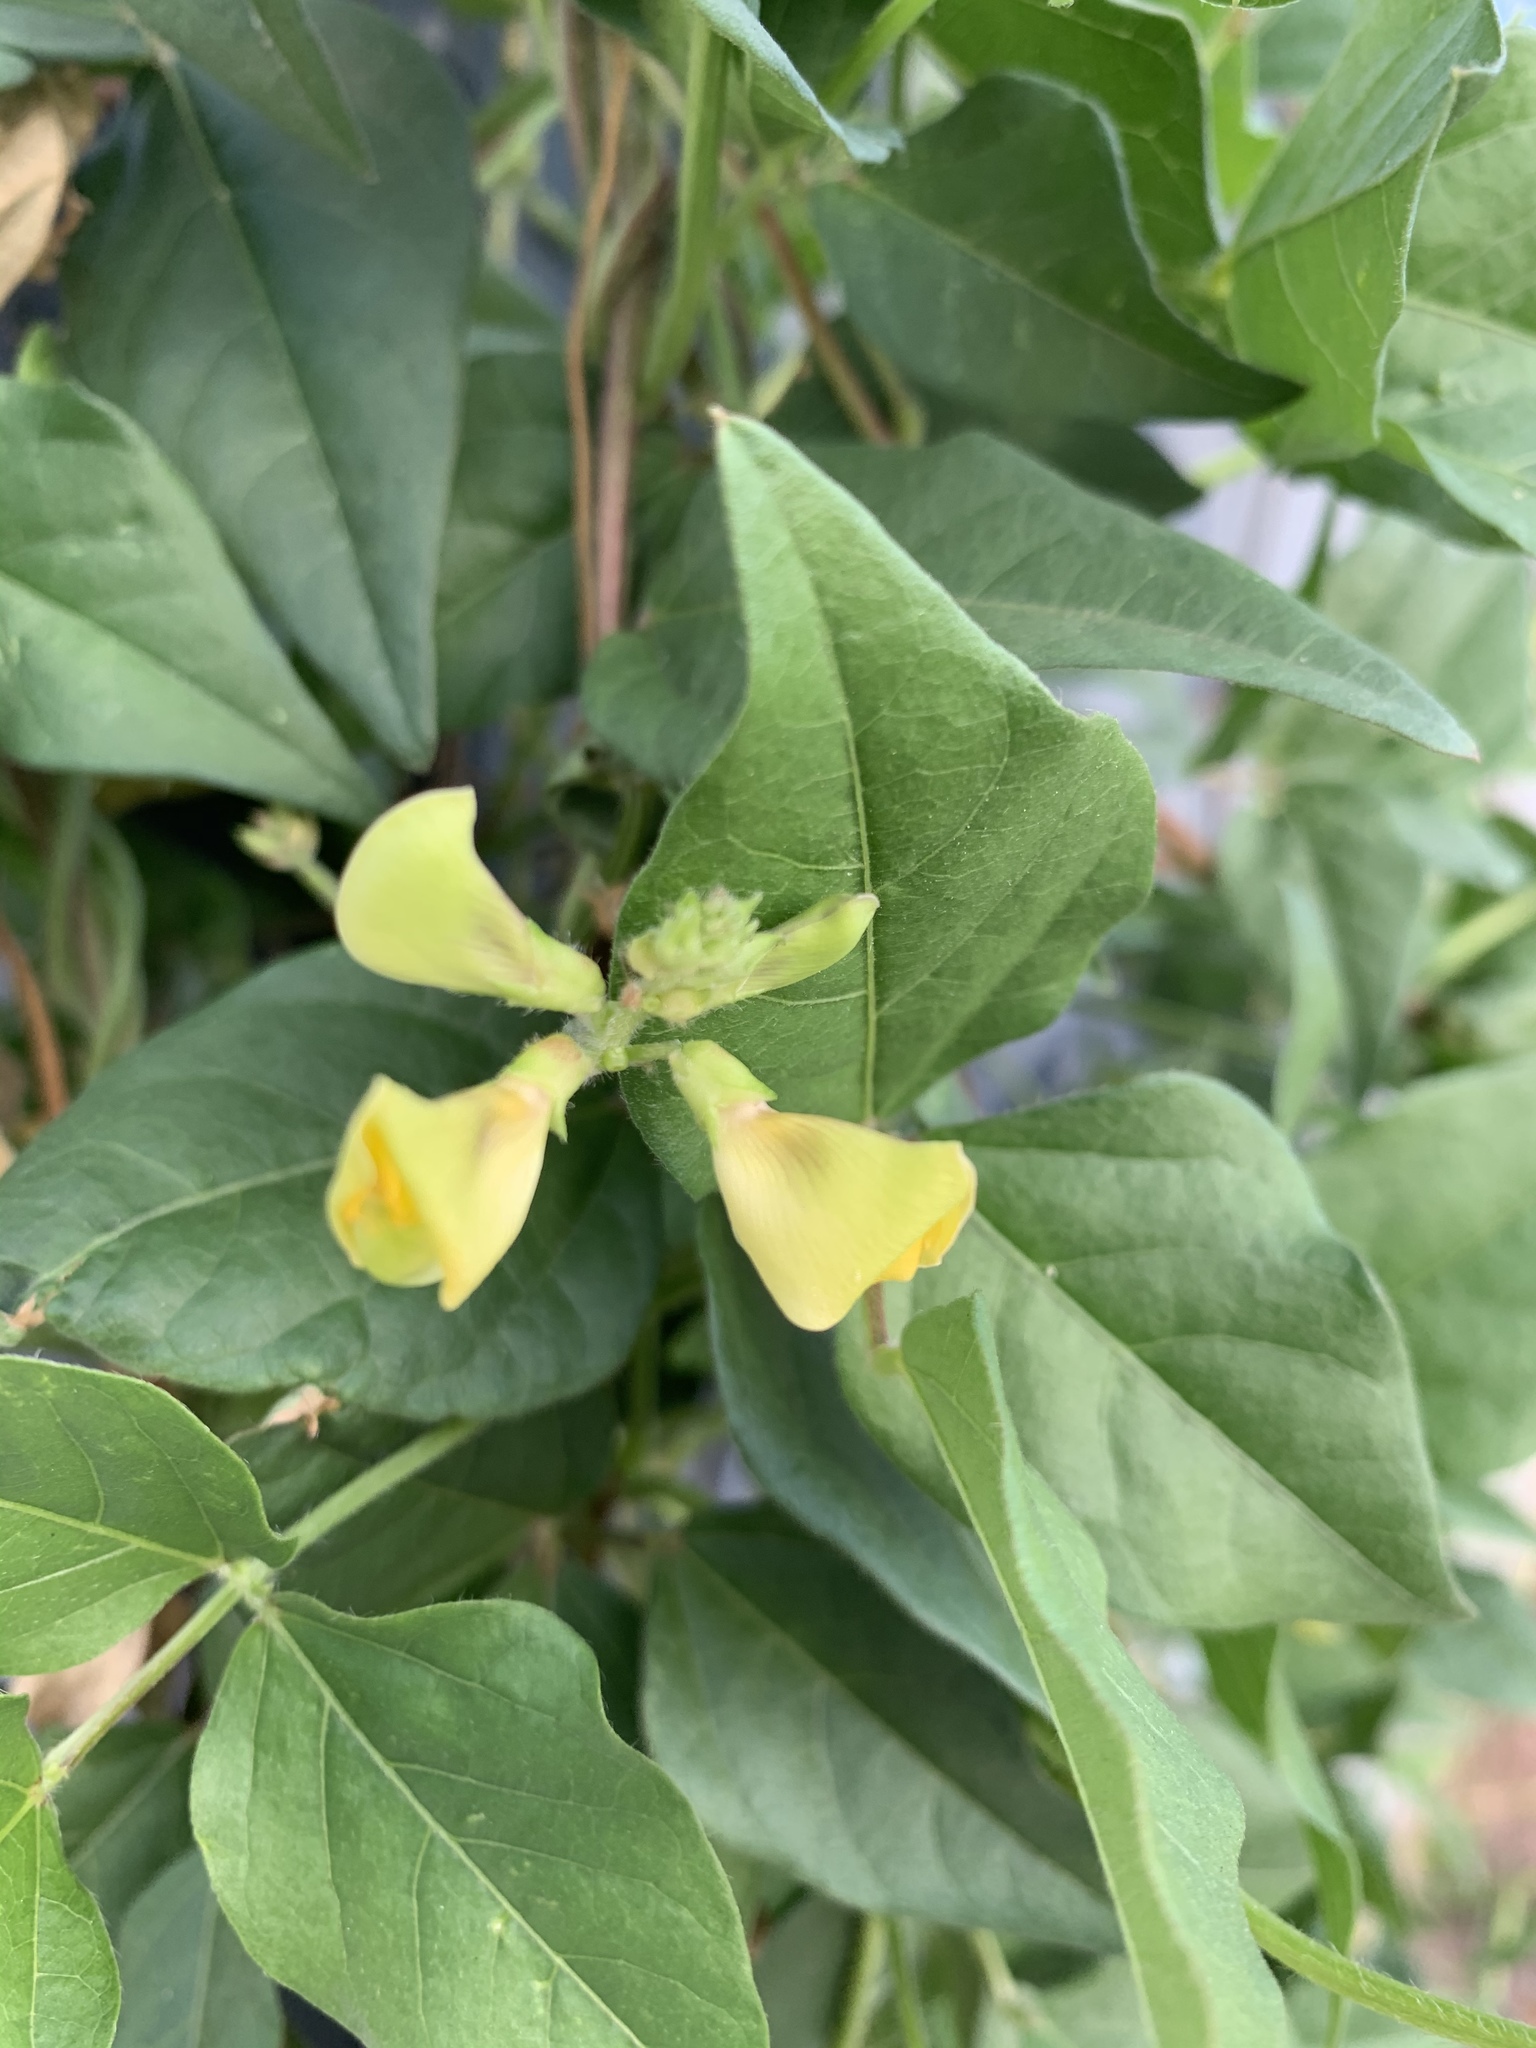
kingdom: Plantae
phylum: Tracheophyta
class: Magnoliopsida
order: Fabales
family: Fabaceae
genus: Vigna
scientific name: Vigna luteola
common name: Hairypod cowpea
